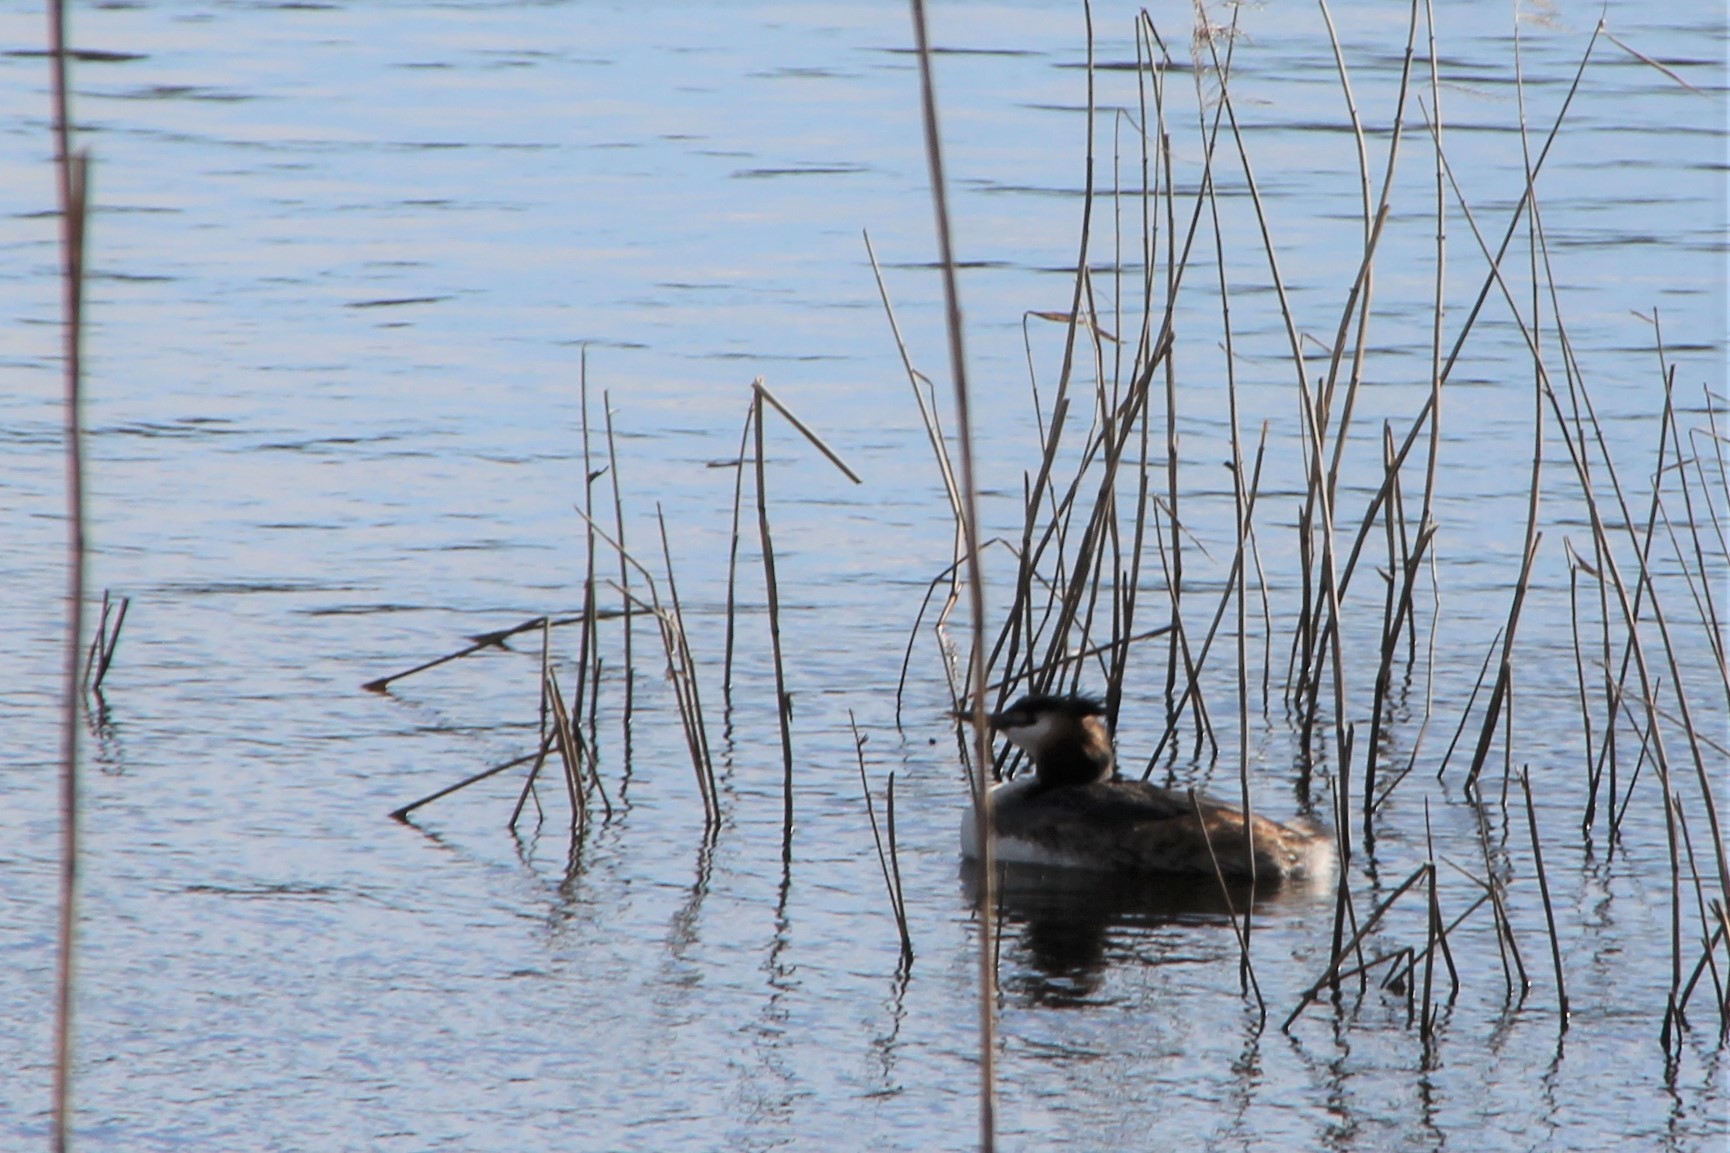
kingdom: Animalia
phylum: Chordata
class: Aves
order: Podicipediformes
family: Podicipedidae
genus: Podiceps
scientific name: Podiceps cristatus
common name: Great crested grebe
